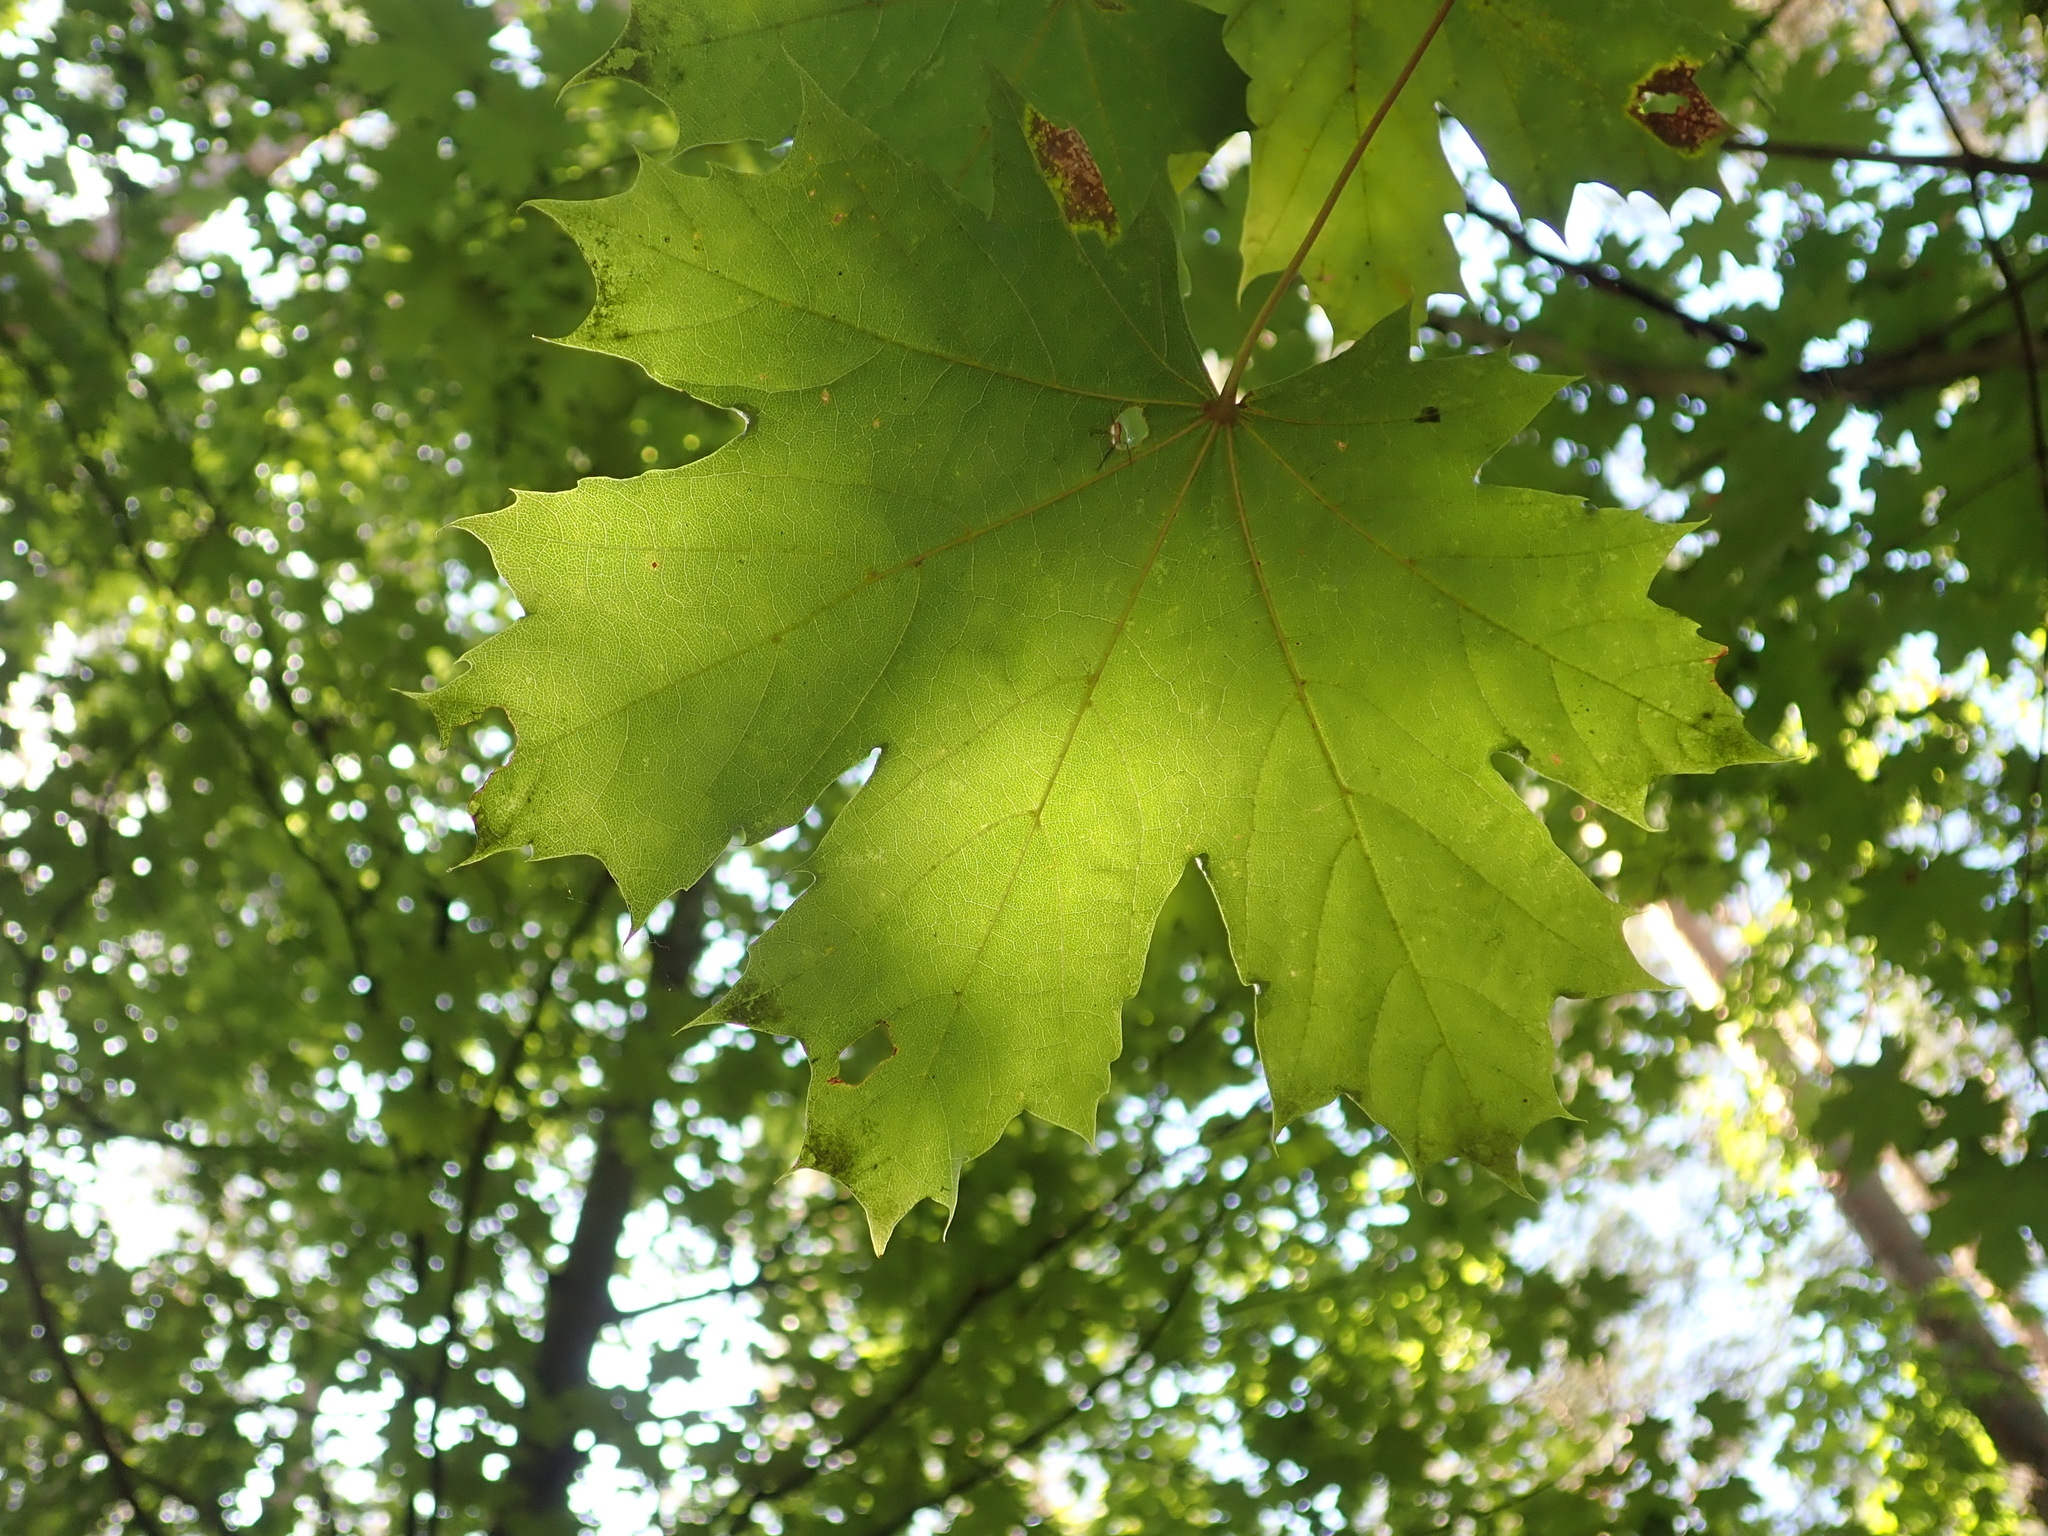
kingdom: Plantae
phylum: Tracheophyta
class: Magnoliopsida
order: Sapindales
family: Sapindaceae
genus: Acer
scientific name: Acer platanoides
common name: Norway maple
